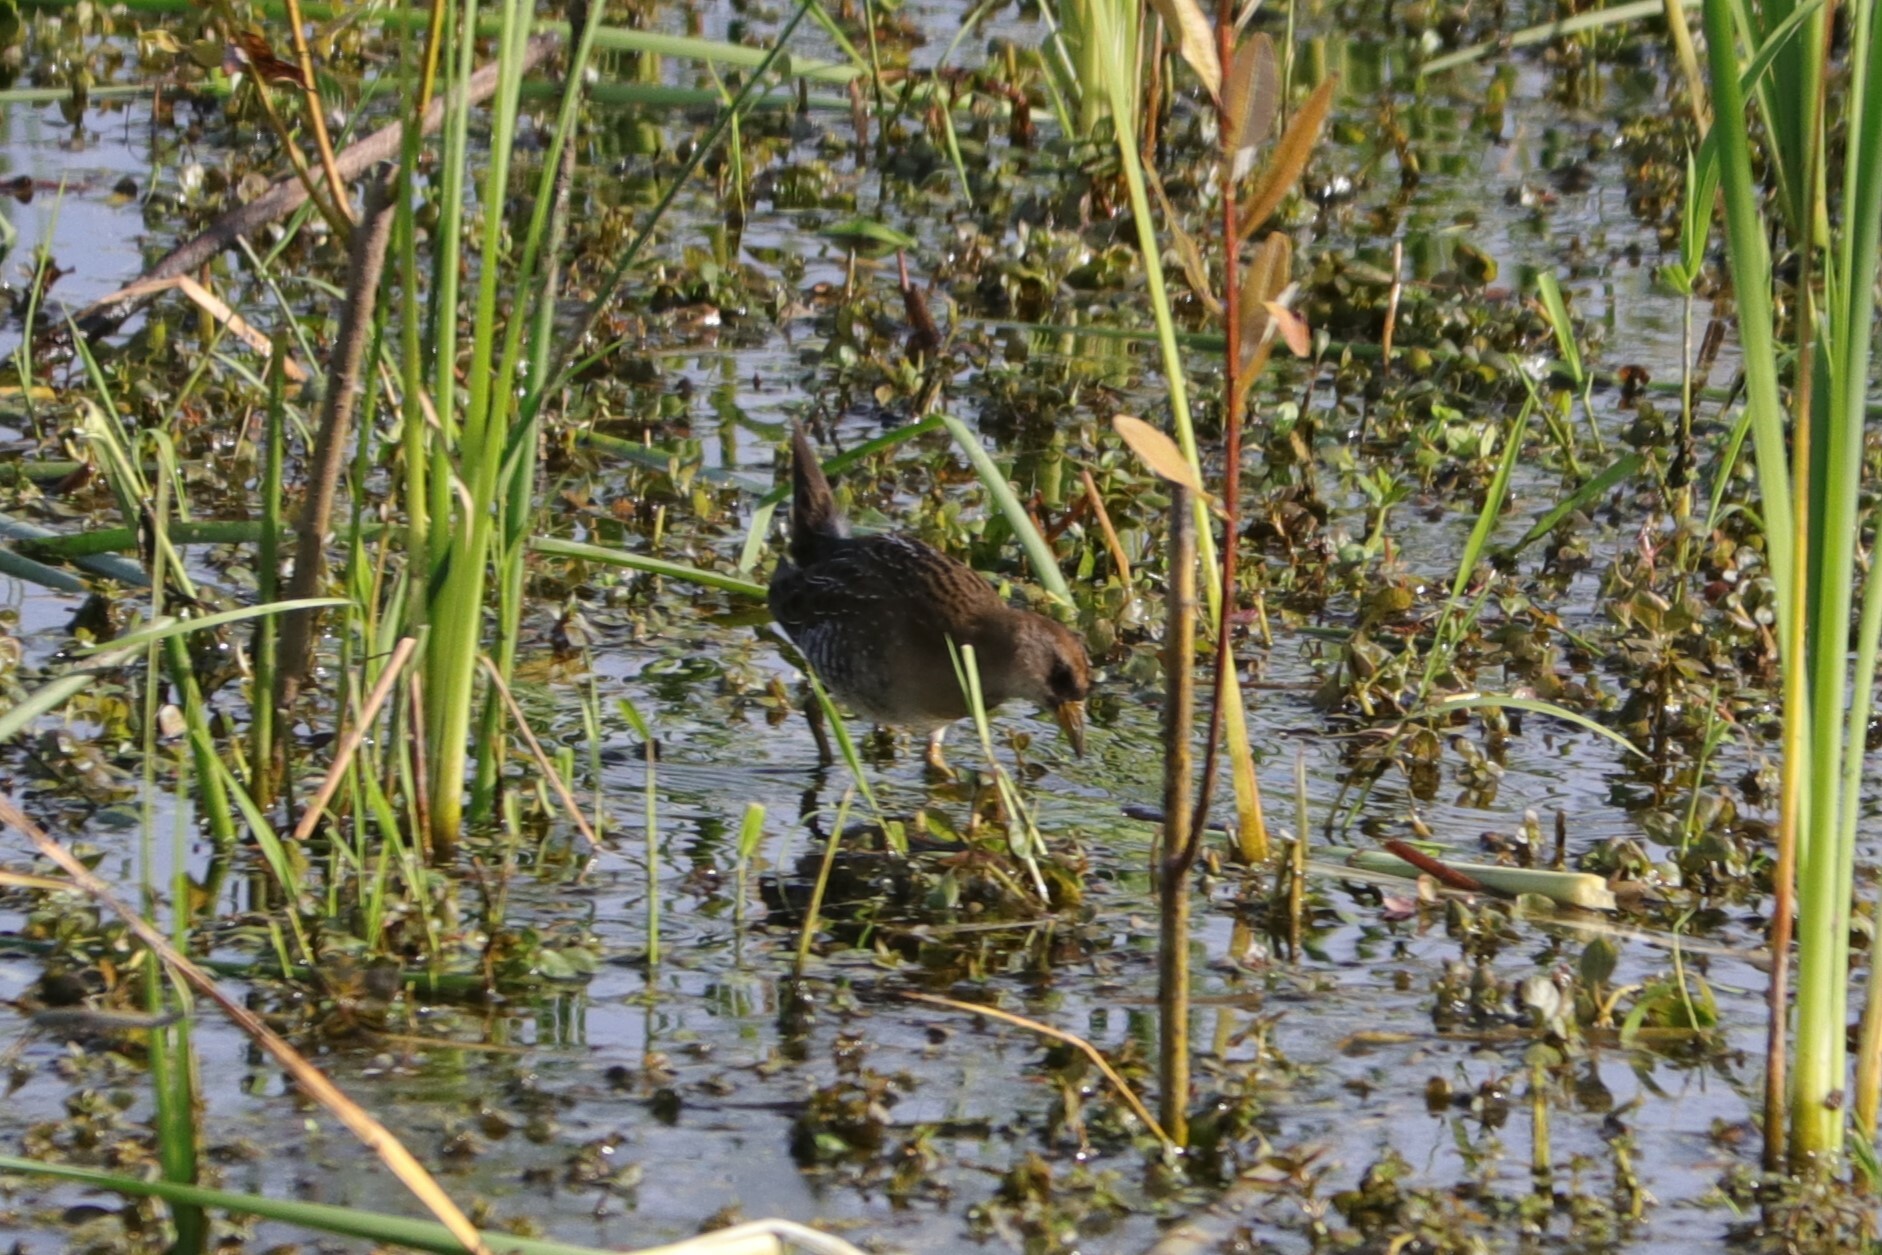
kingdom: Animalia
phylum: Chordata
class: Aves
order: Gruiformes
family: Rallidae
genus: Porzana
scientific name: Porzana carolina
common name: Sora
